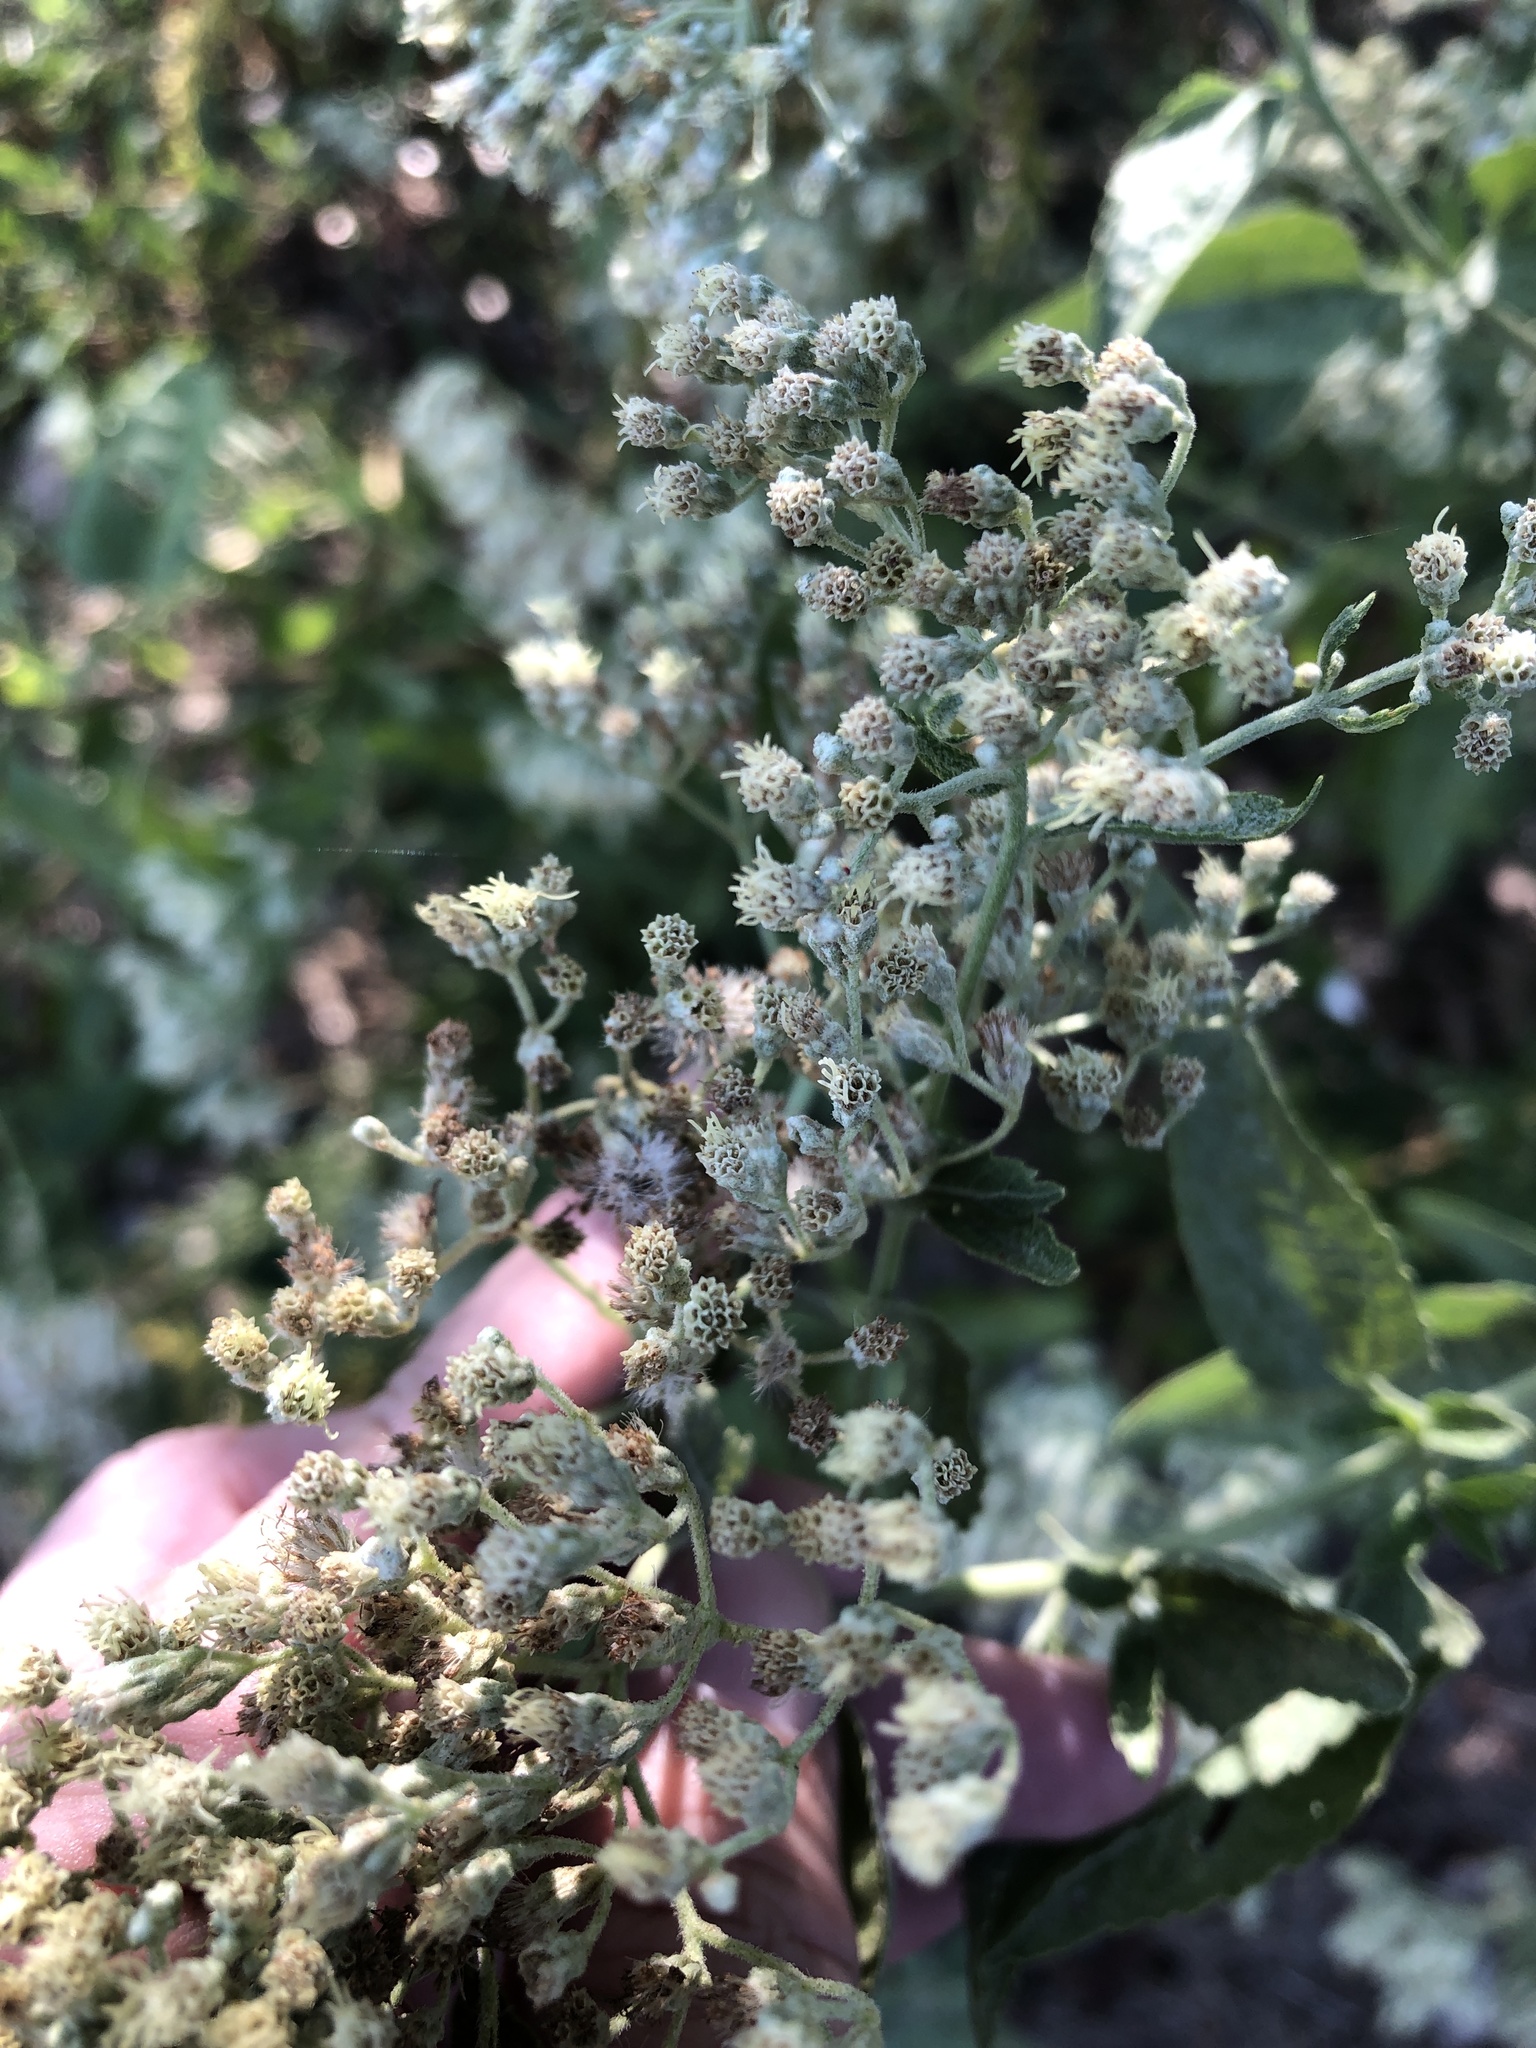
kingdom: Plantae
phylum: Tracheophyta
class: Magnoliopsida
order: Asterales
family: Asteraceae
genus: Eupatorium
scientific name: Eupatorium serotinum
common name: Late boneset
